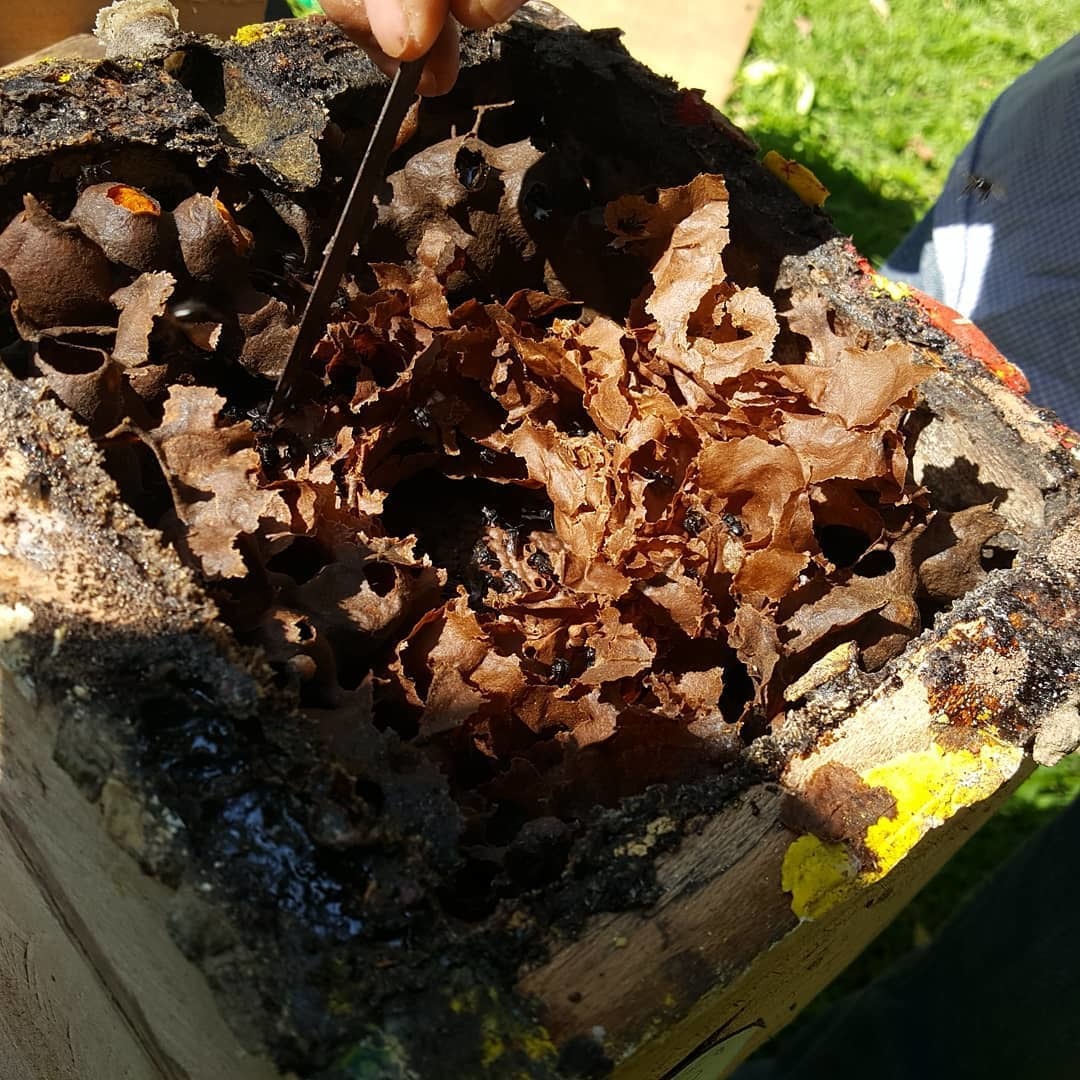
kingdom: Animalia
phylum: Arthropoda
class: Insecta
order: Hymenoptera
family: Apidae
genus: Scaptotrigona
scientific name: Scaptotrigona mexicana
